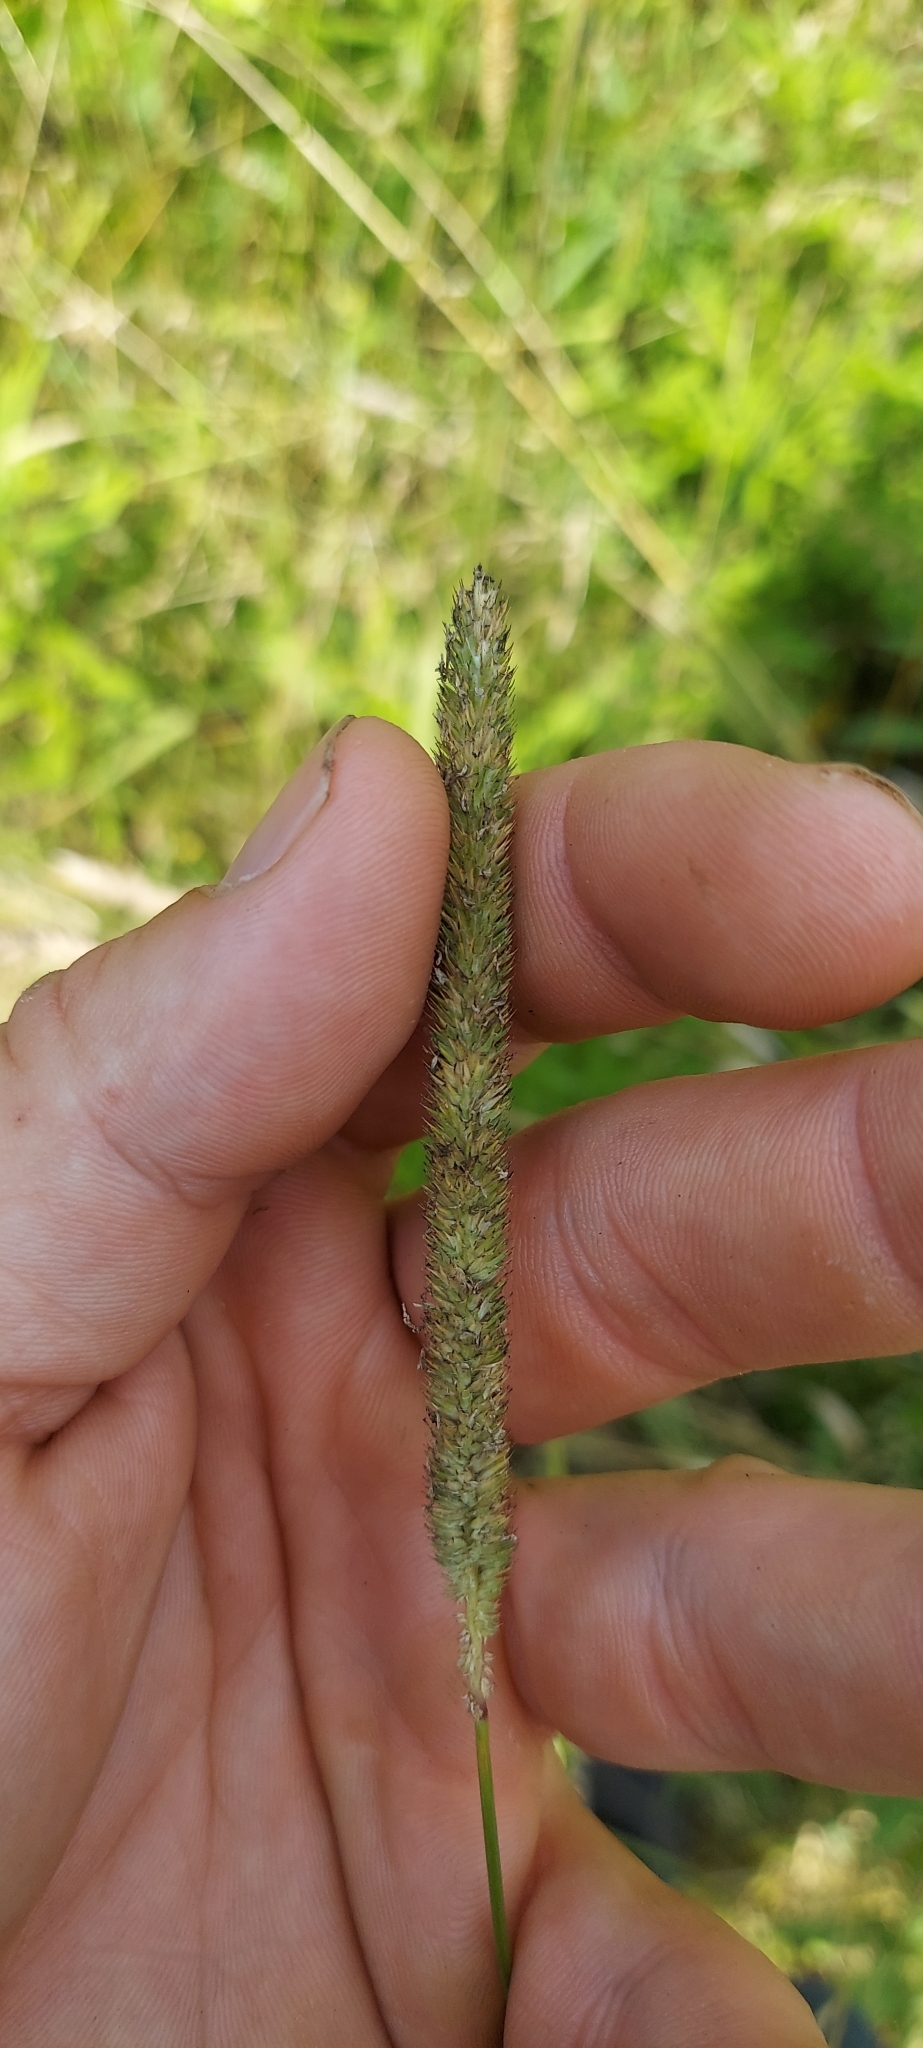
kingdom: Plantae
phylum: Tracheophyta
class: Liliopsida
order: Poales
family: Poaceae
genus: Phleum
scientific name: Phleum pratense
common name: Timothy grass
